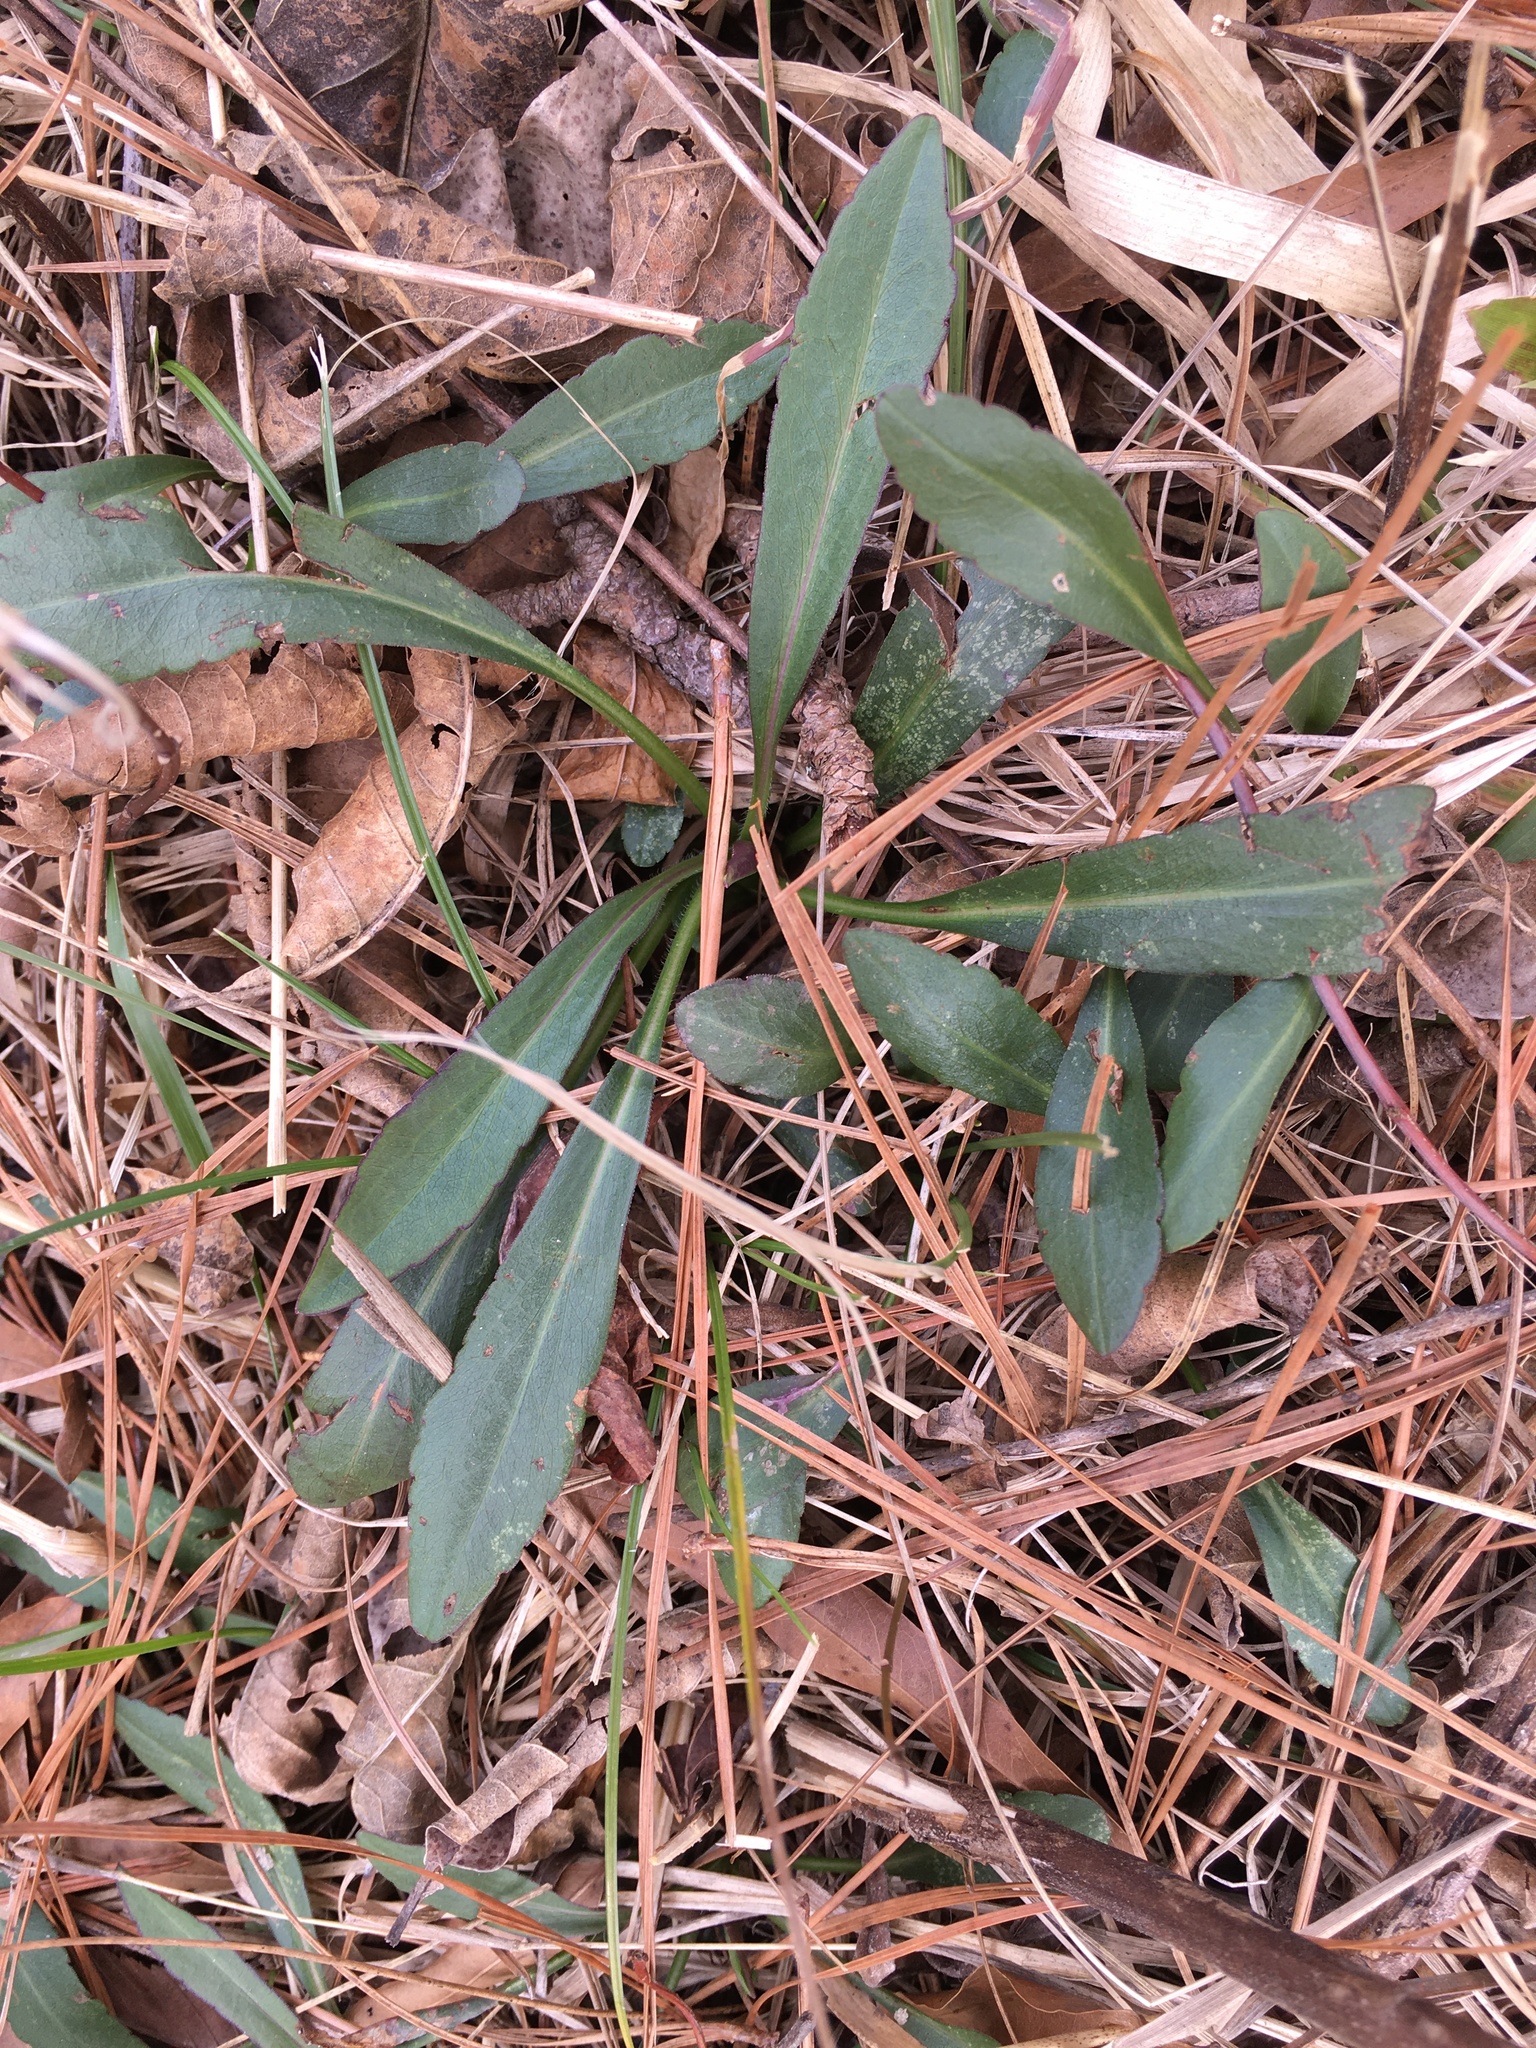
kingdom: Plantae
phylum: Tracheophyta
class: Magnoliopsida
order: Asterales
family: Asteraceae
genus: Symphyotrichum
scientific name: Symphyotrichum praealtum
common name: Willow aster
